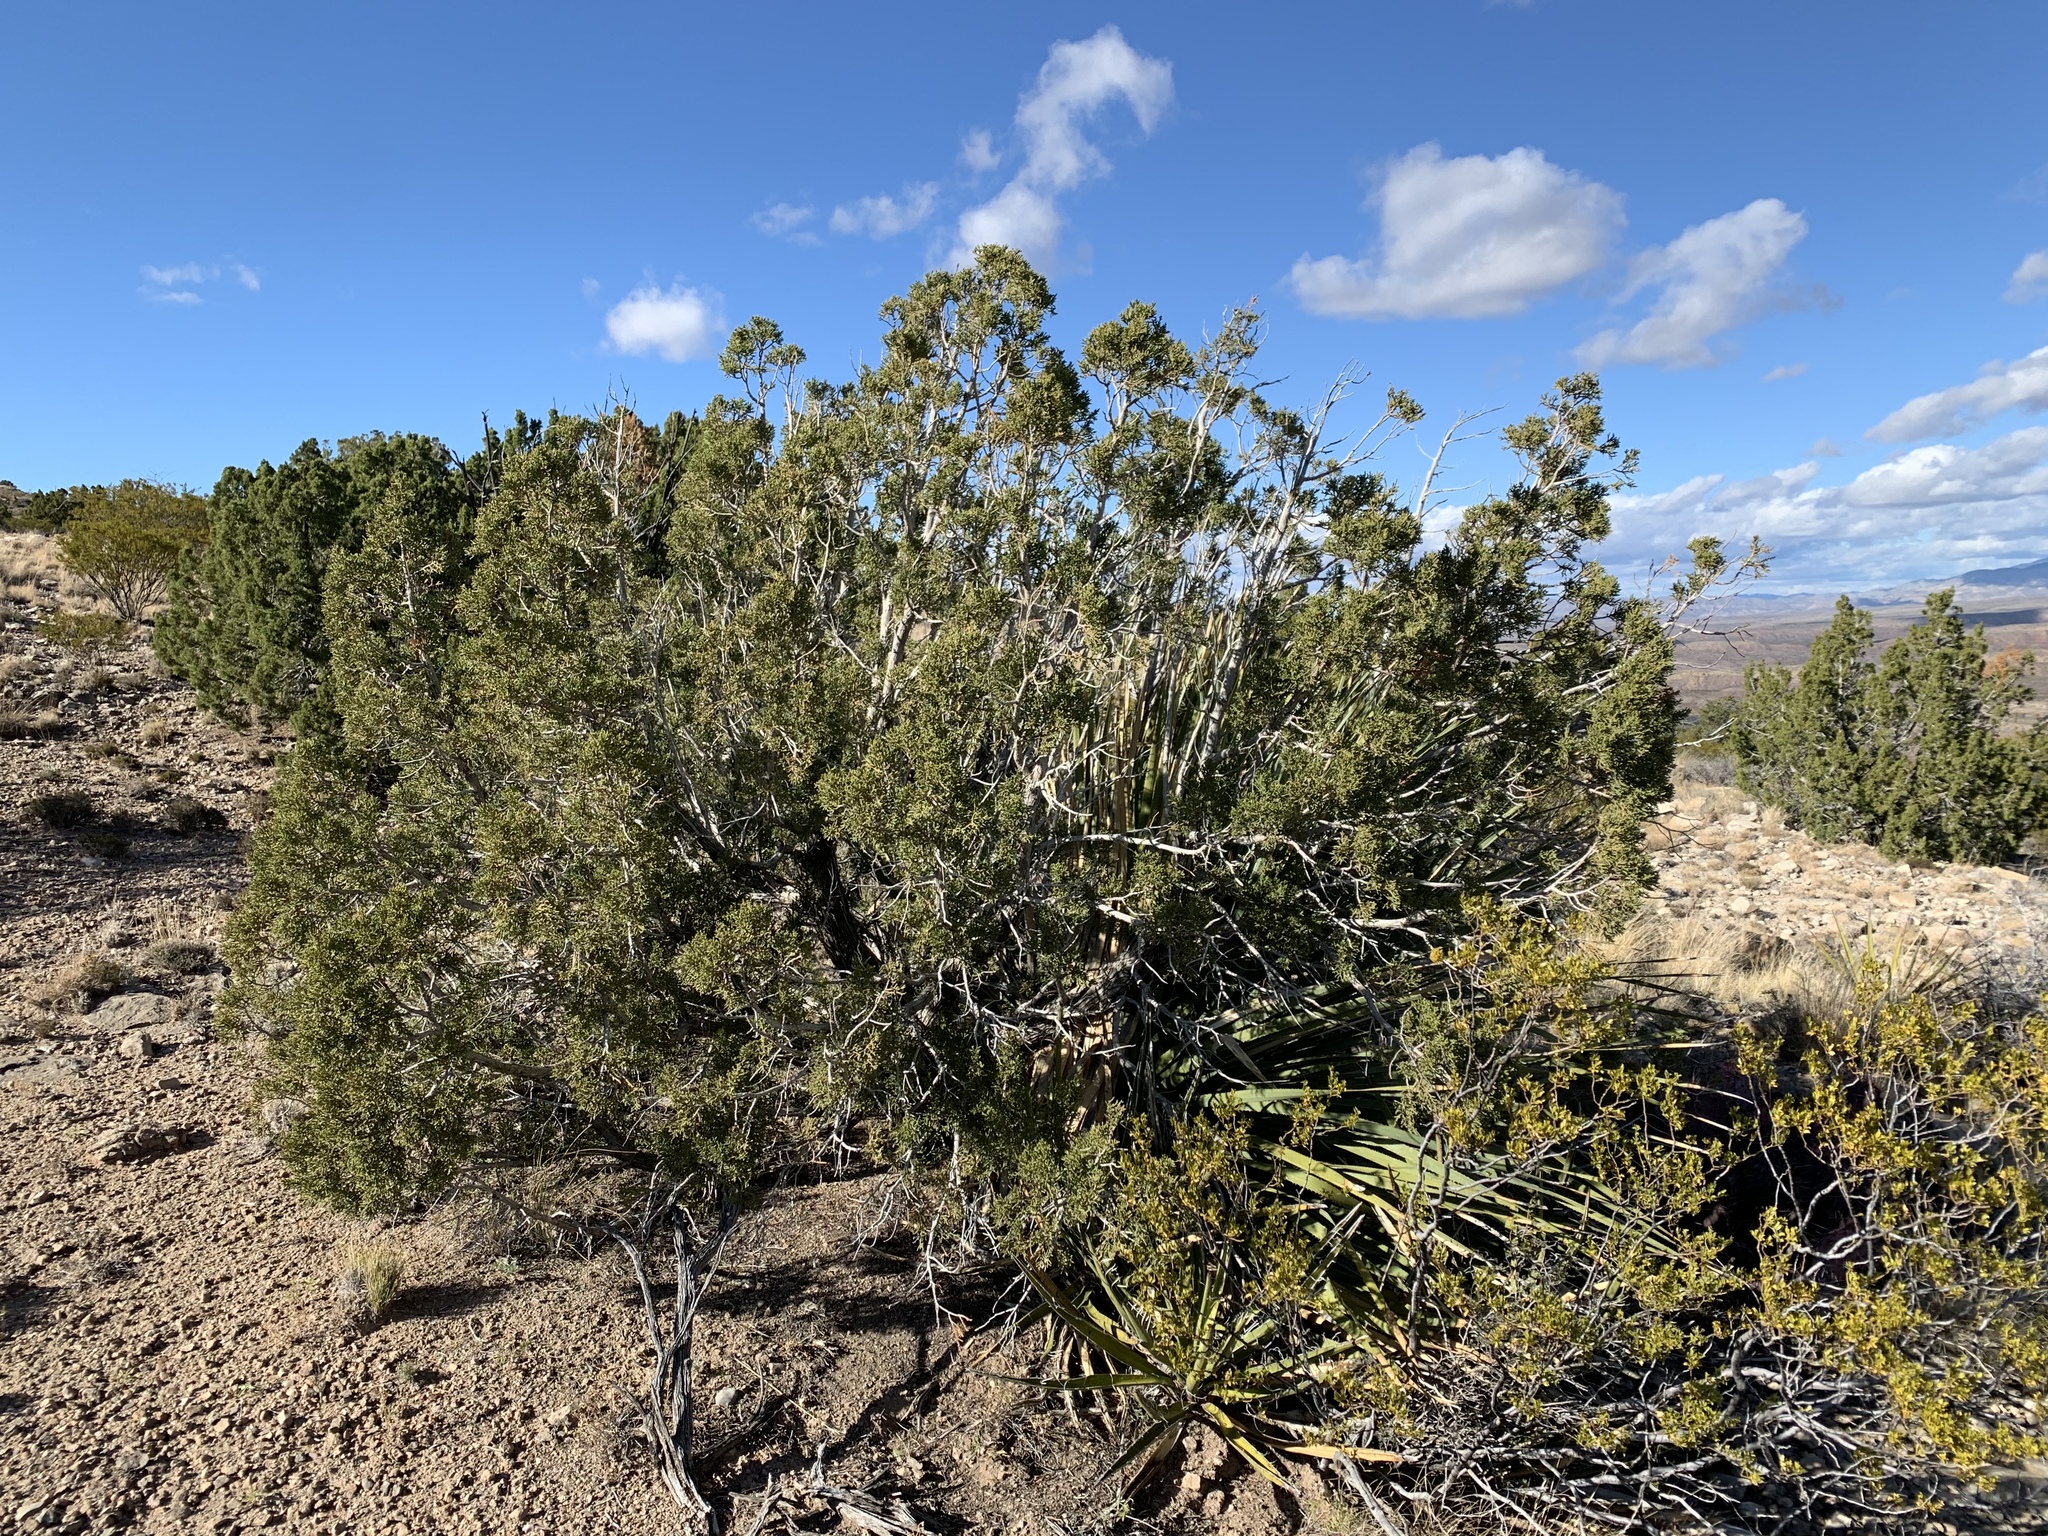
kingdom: Plantae
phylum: Tracheophyta
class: Pinopsida
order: Pinales
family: Cupressaceae
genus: Juniperus
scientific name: Juniperus monosperma
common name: One-seed juniper
